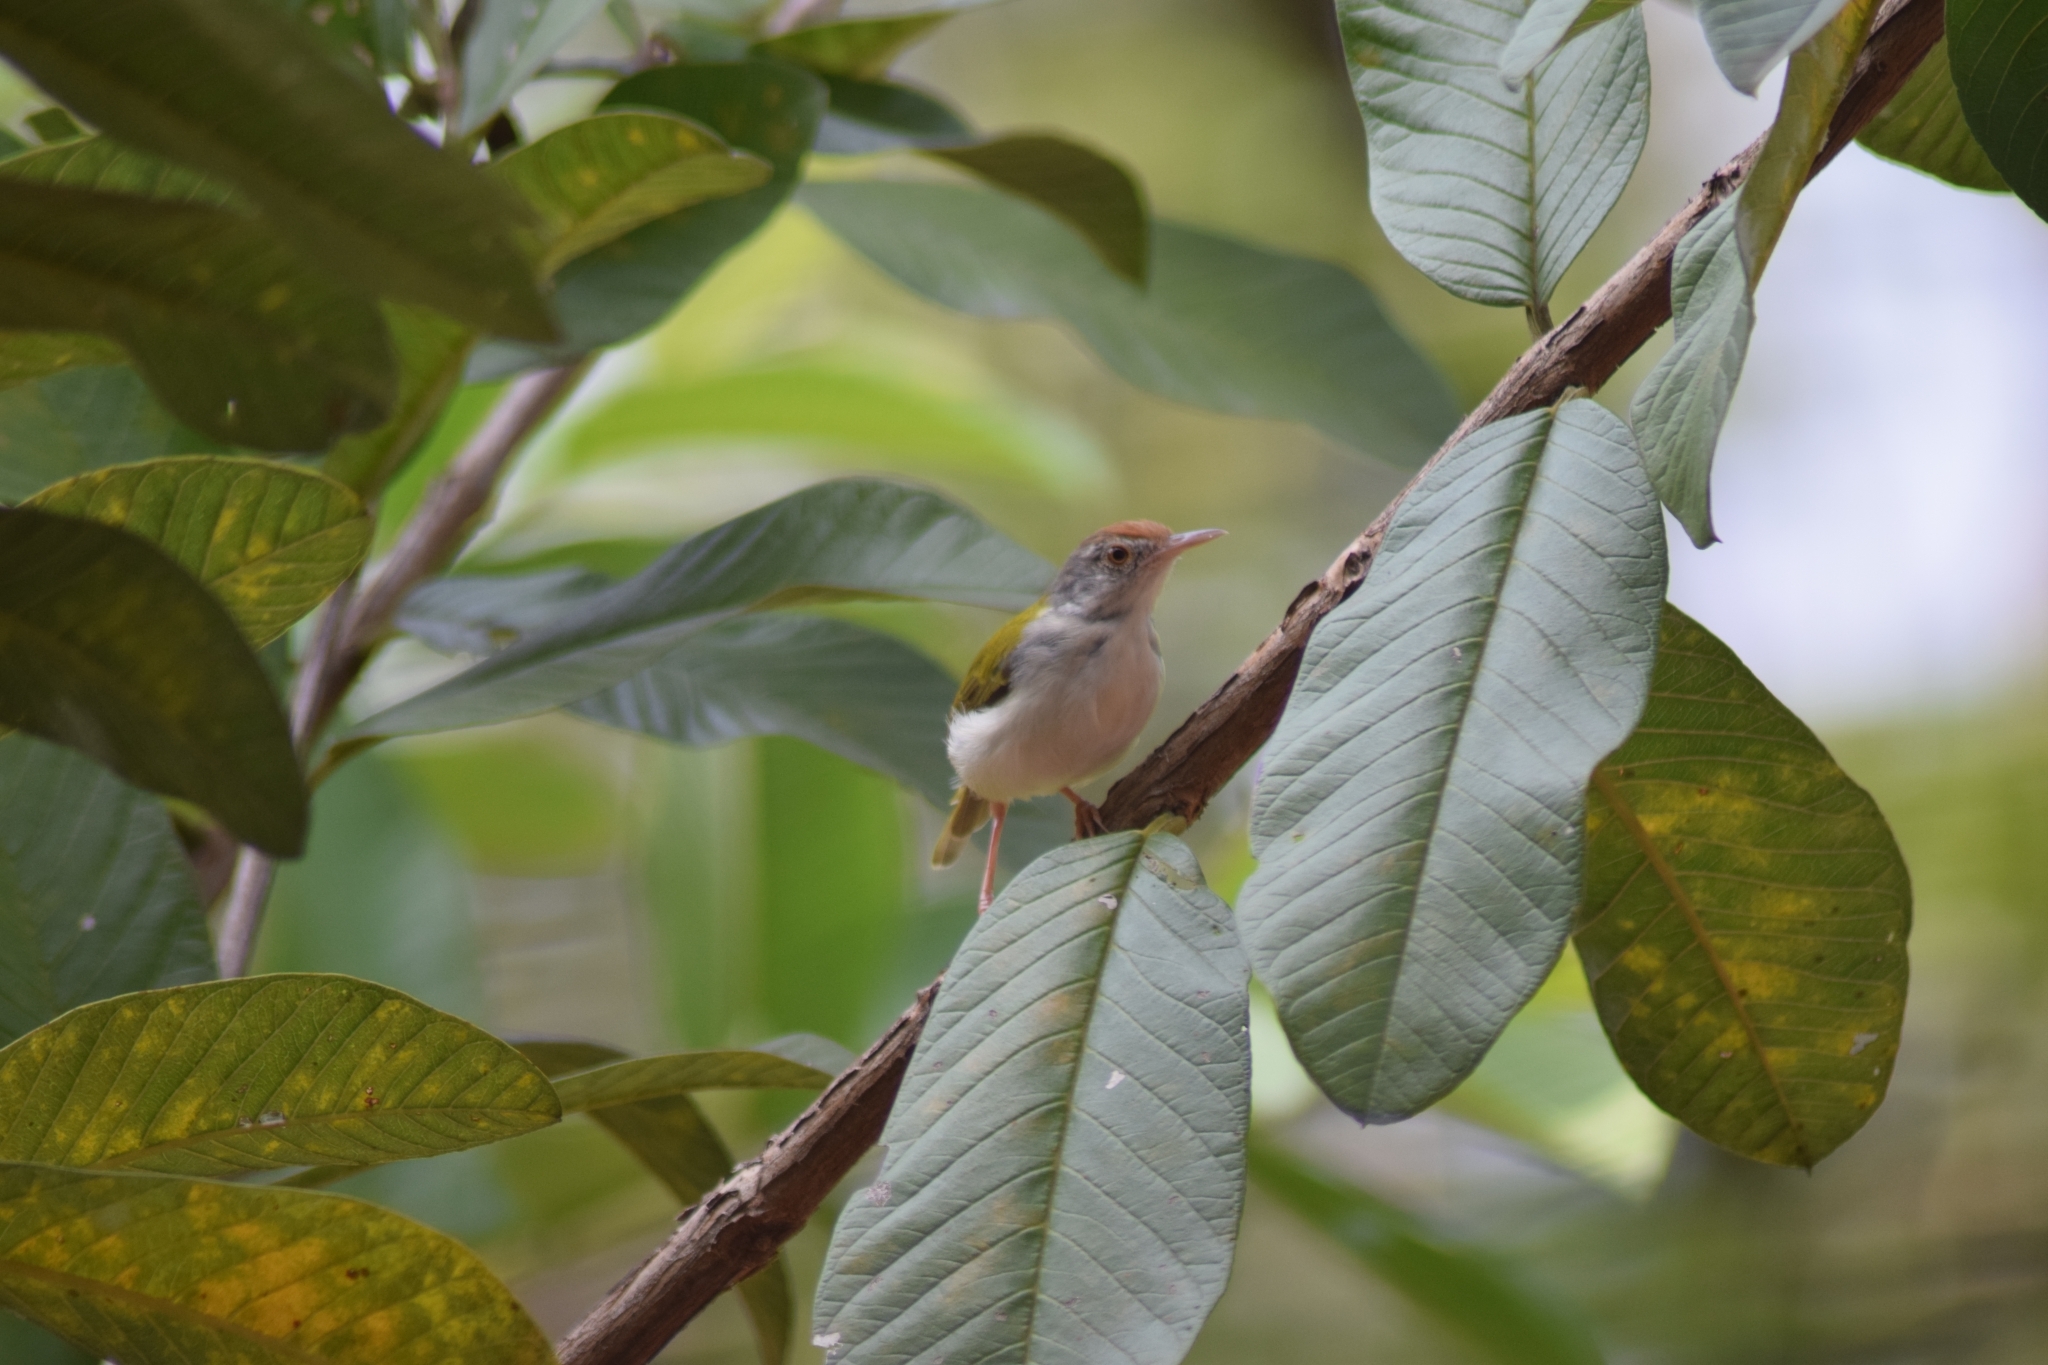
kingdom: Animalia
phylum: Chordata
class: Aves
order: Passeriformes
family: Cisticolidae
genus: Orthotomus
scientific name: Orthotomus sutorius
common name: Common tailorbird
